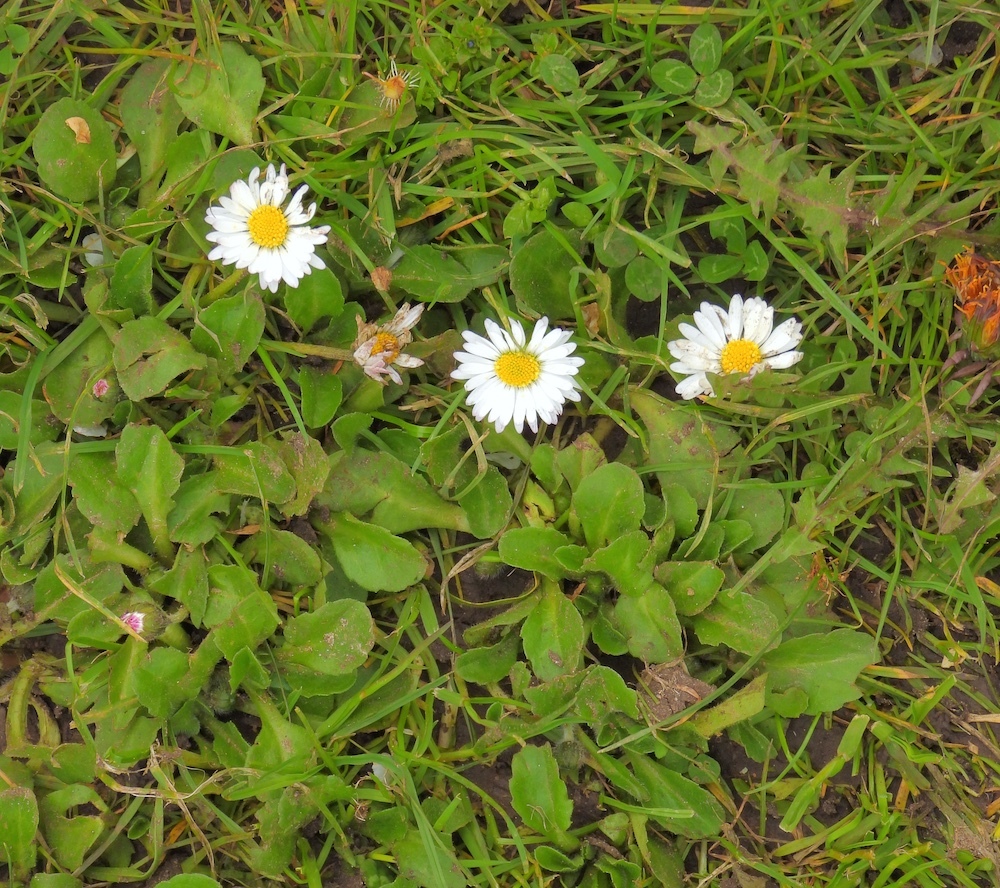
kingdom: Plantae
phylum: Tracheophyta
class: Magnoliopsida
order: Asterales
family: Asteraceae
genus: Bellis
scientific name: Bellis perennis
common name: Lawndaisy
